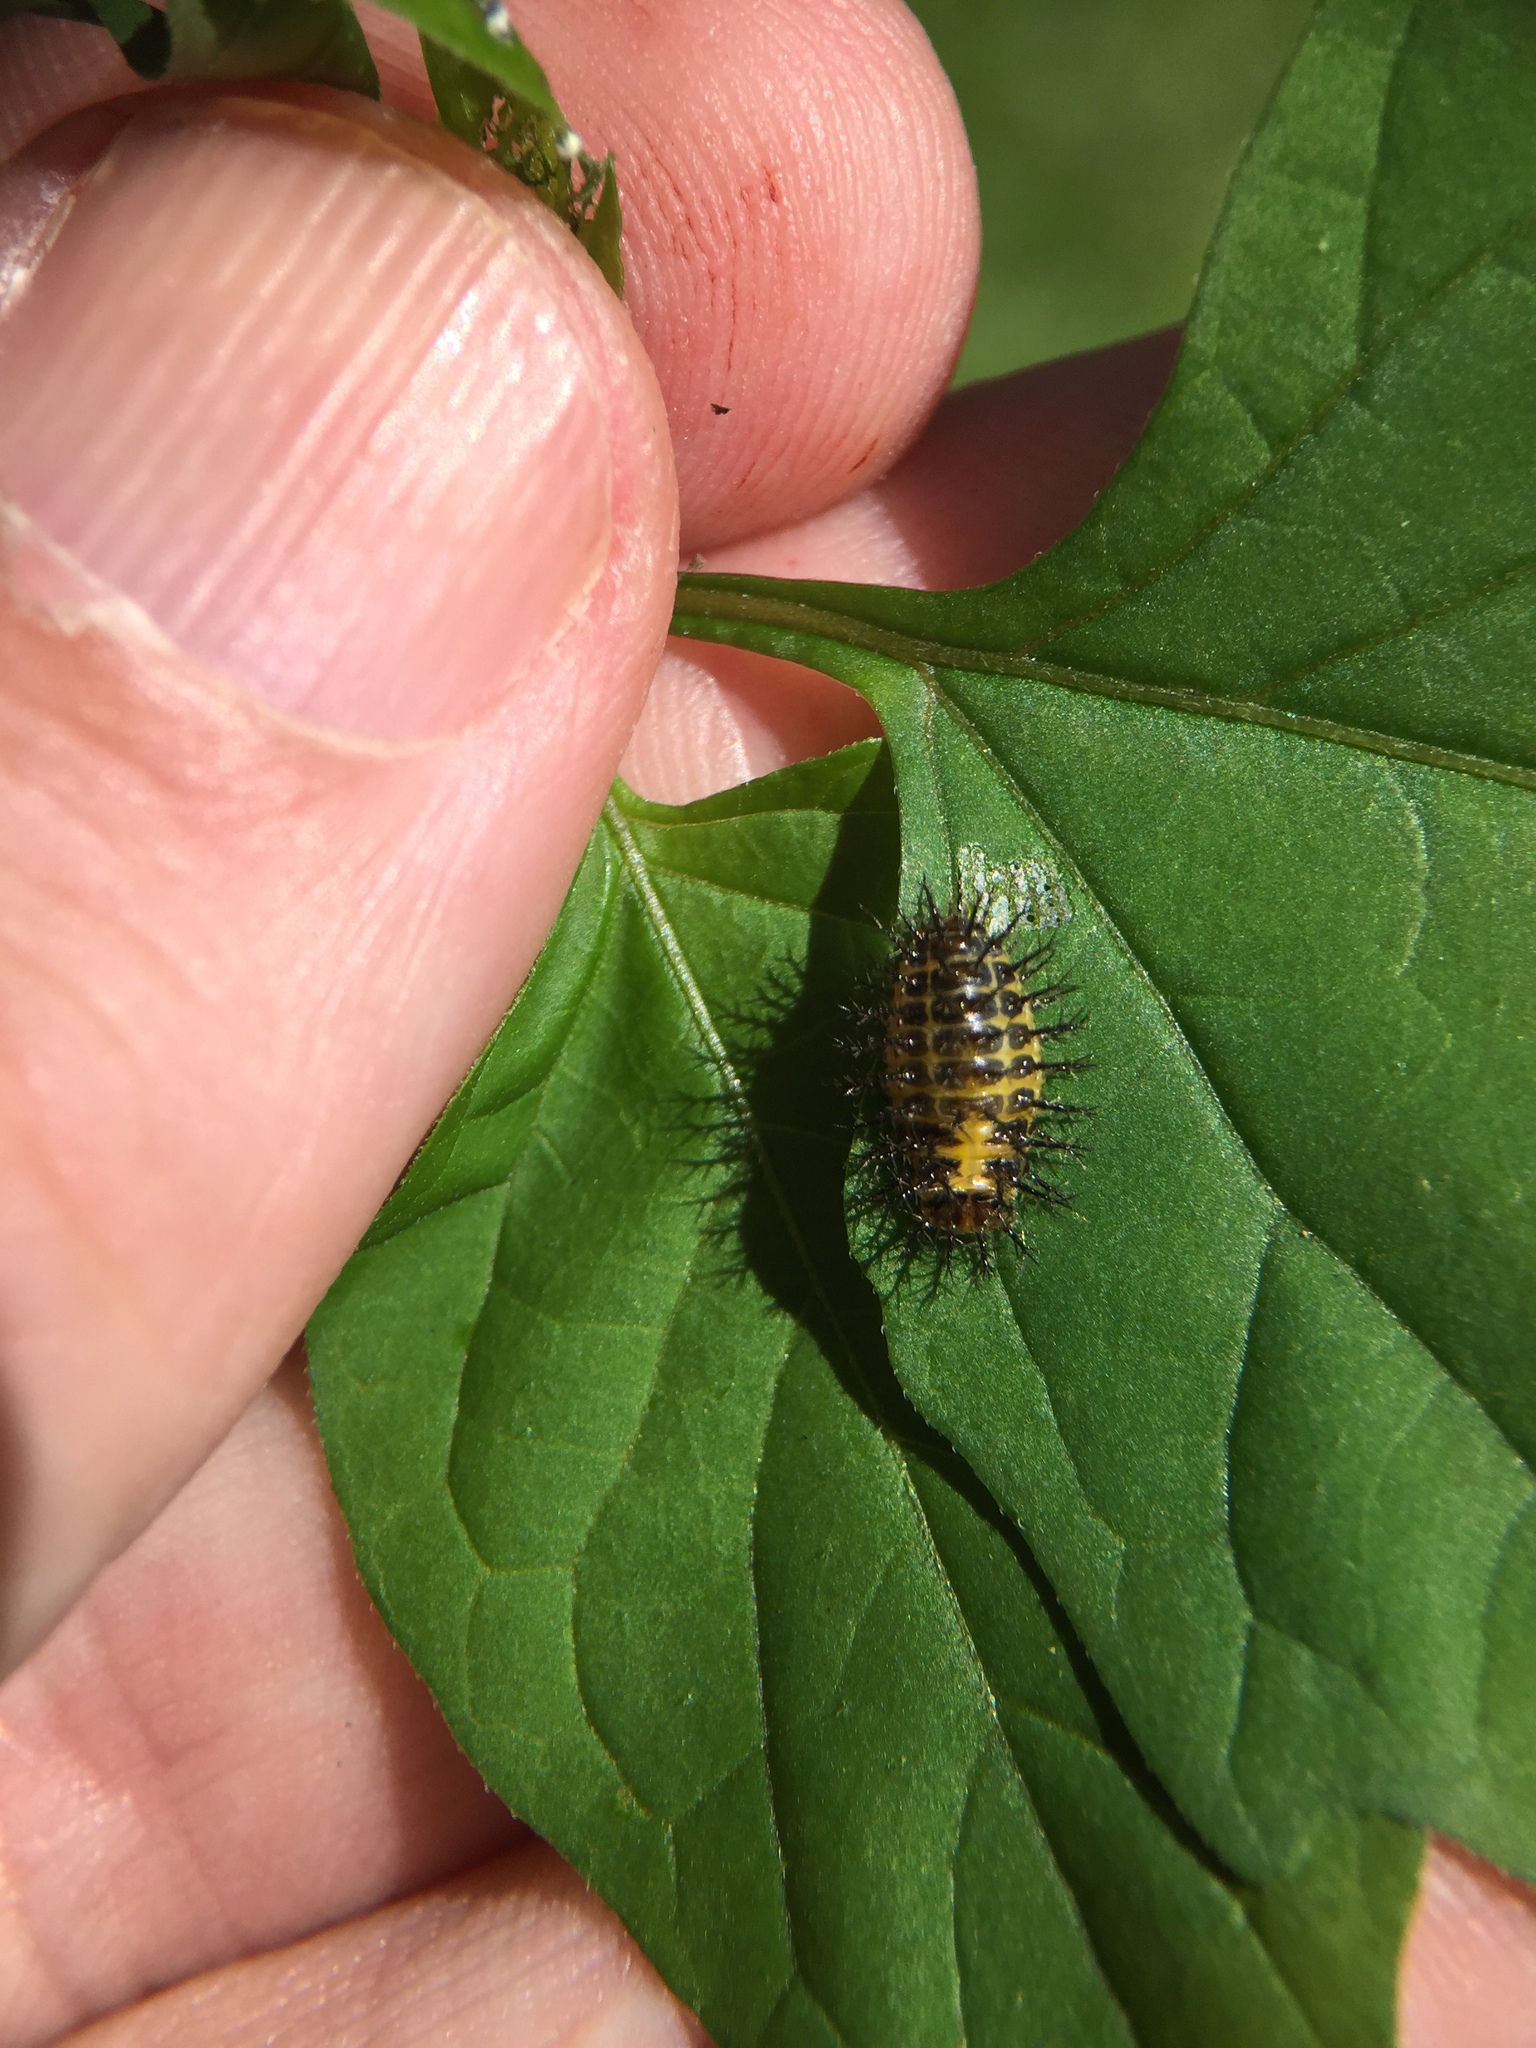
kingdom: Animalia
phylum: Arthropoda
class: Insecta
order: Coleoptera
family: Coccinellidae
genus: Henosepilachna
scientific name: Henosepilachna vigintioctopunctata
